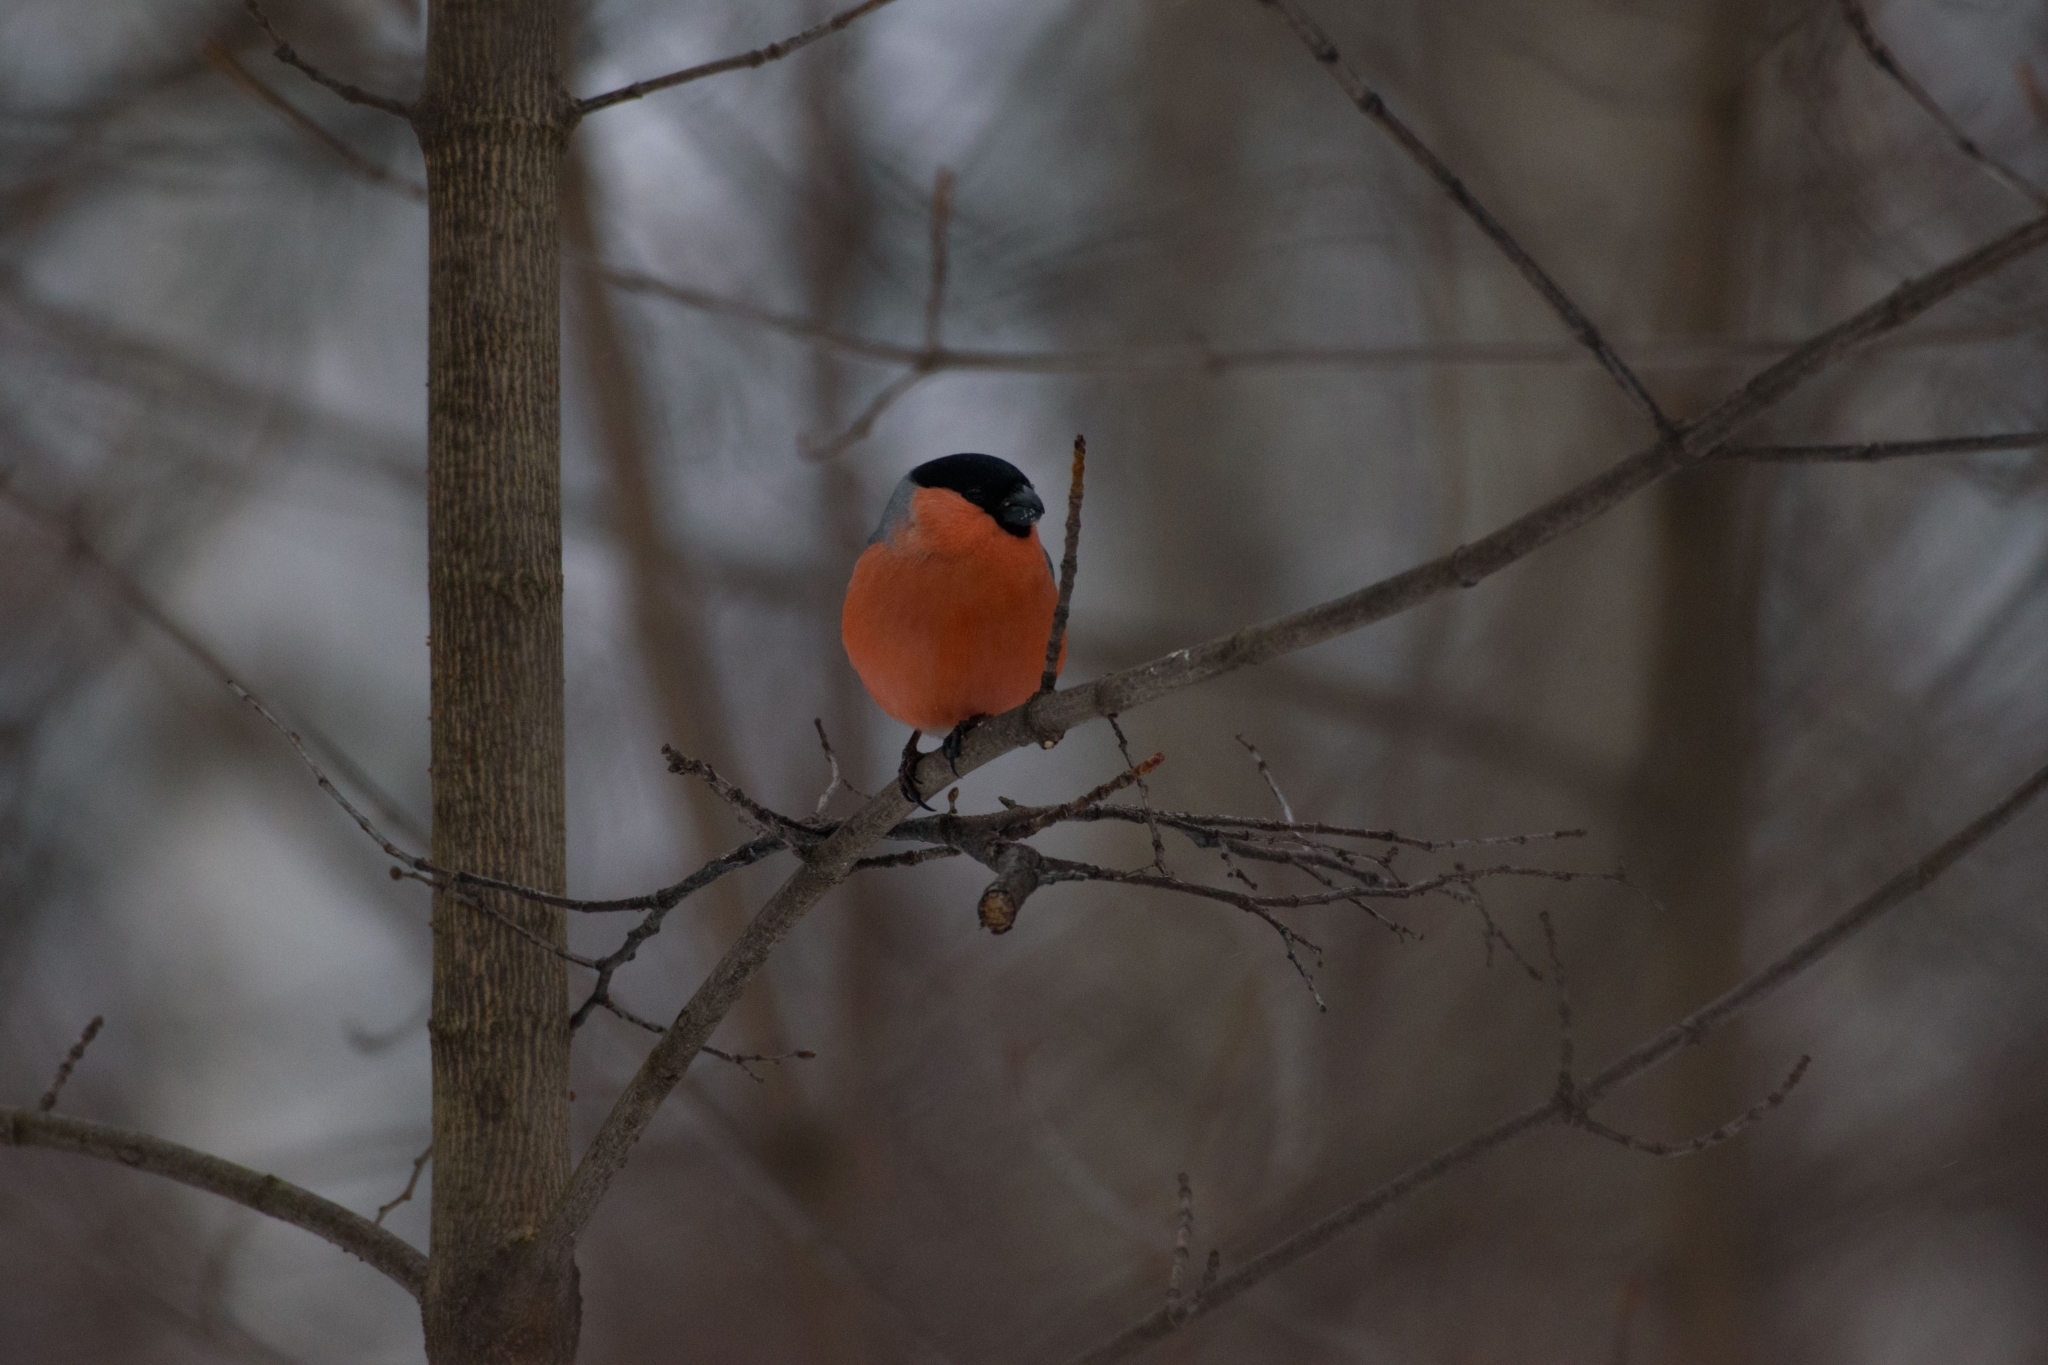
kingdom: Animalia
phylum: Chordata
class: Aves
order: Passeriformes
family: Fringillidae
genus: Pyrrhula
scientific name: Pyrrhula pyrrhula
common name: Eurasian bullfinch
